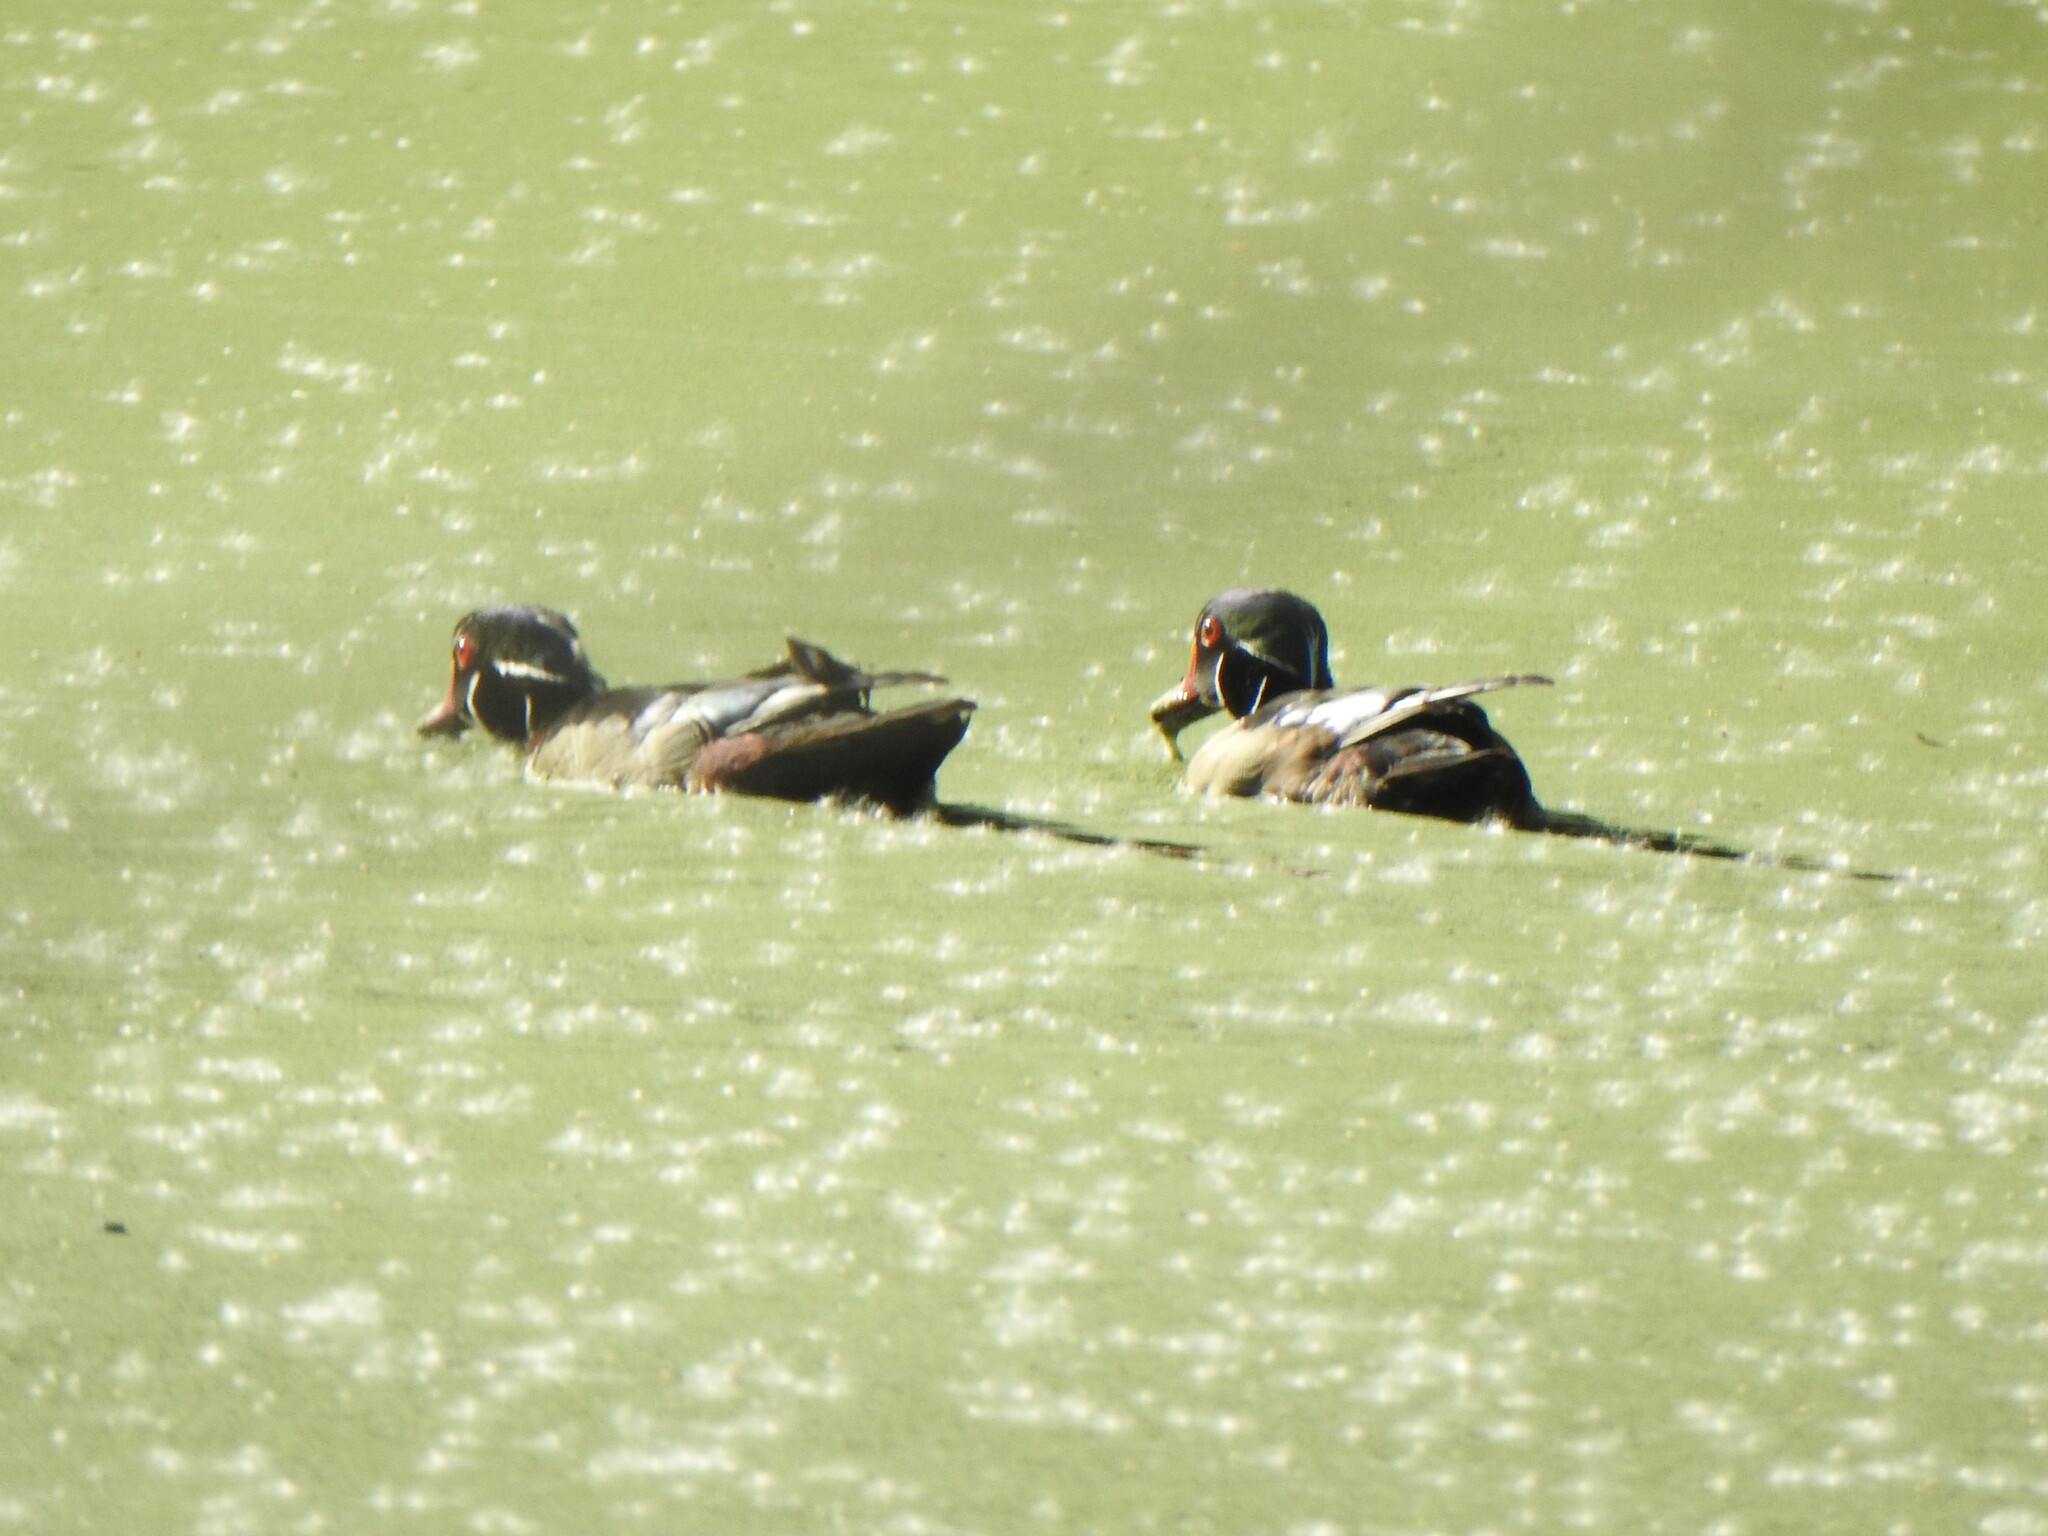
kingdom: Animalia
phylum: Chordata
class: Aves
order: Anseriformes
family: Anatidae
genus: Aix
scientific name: Aix sponsa
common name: Wood duck
